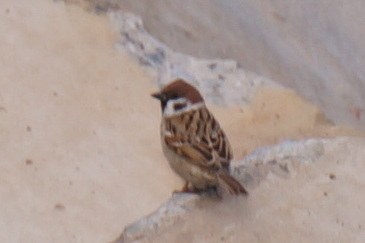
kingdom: Animalia
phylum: Chordata
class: Aves
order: Passeriformes
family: Passeridae
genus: Passer
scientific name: Passer montanus
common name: Eurasian tree sparrow
